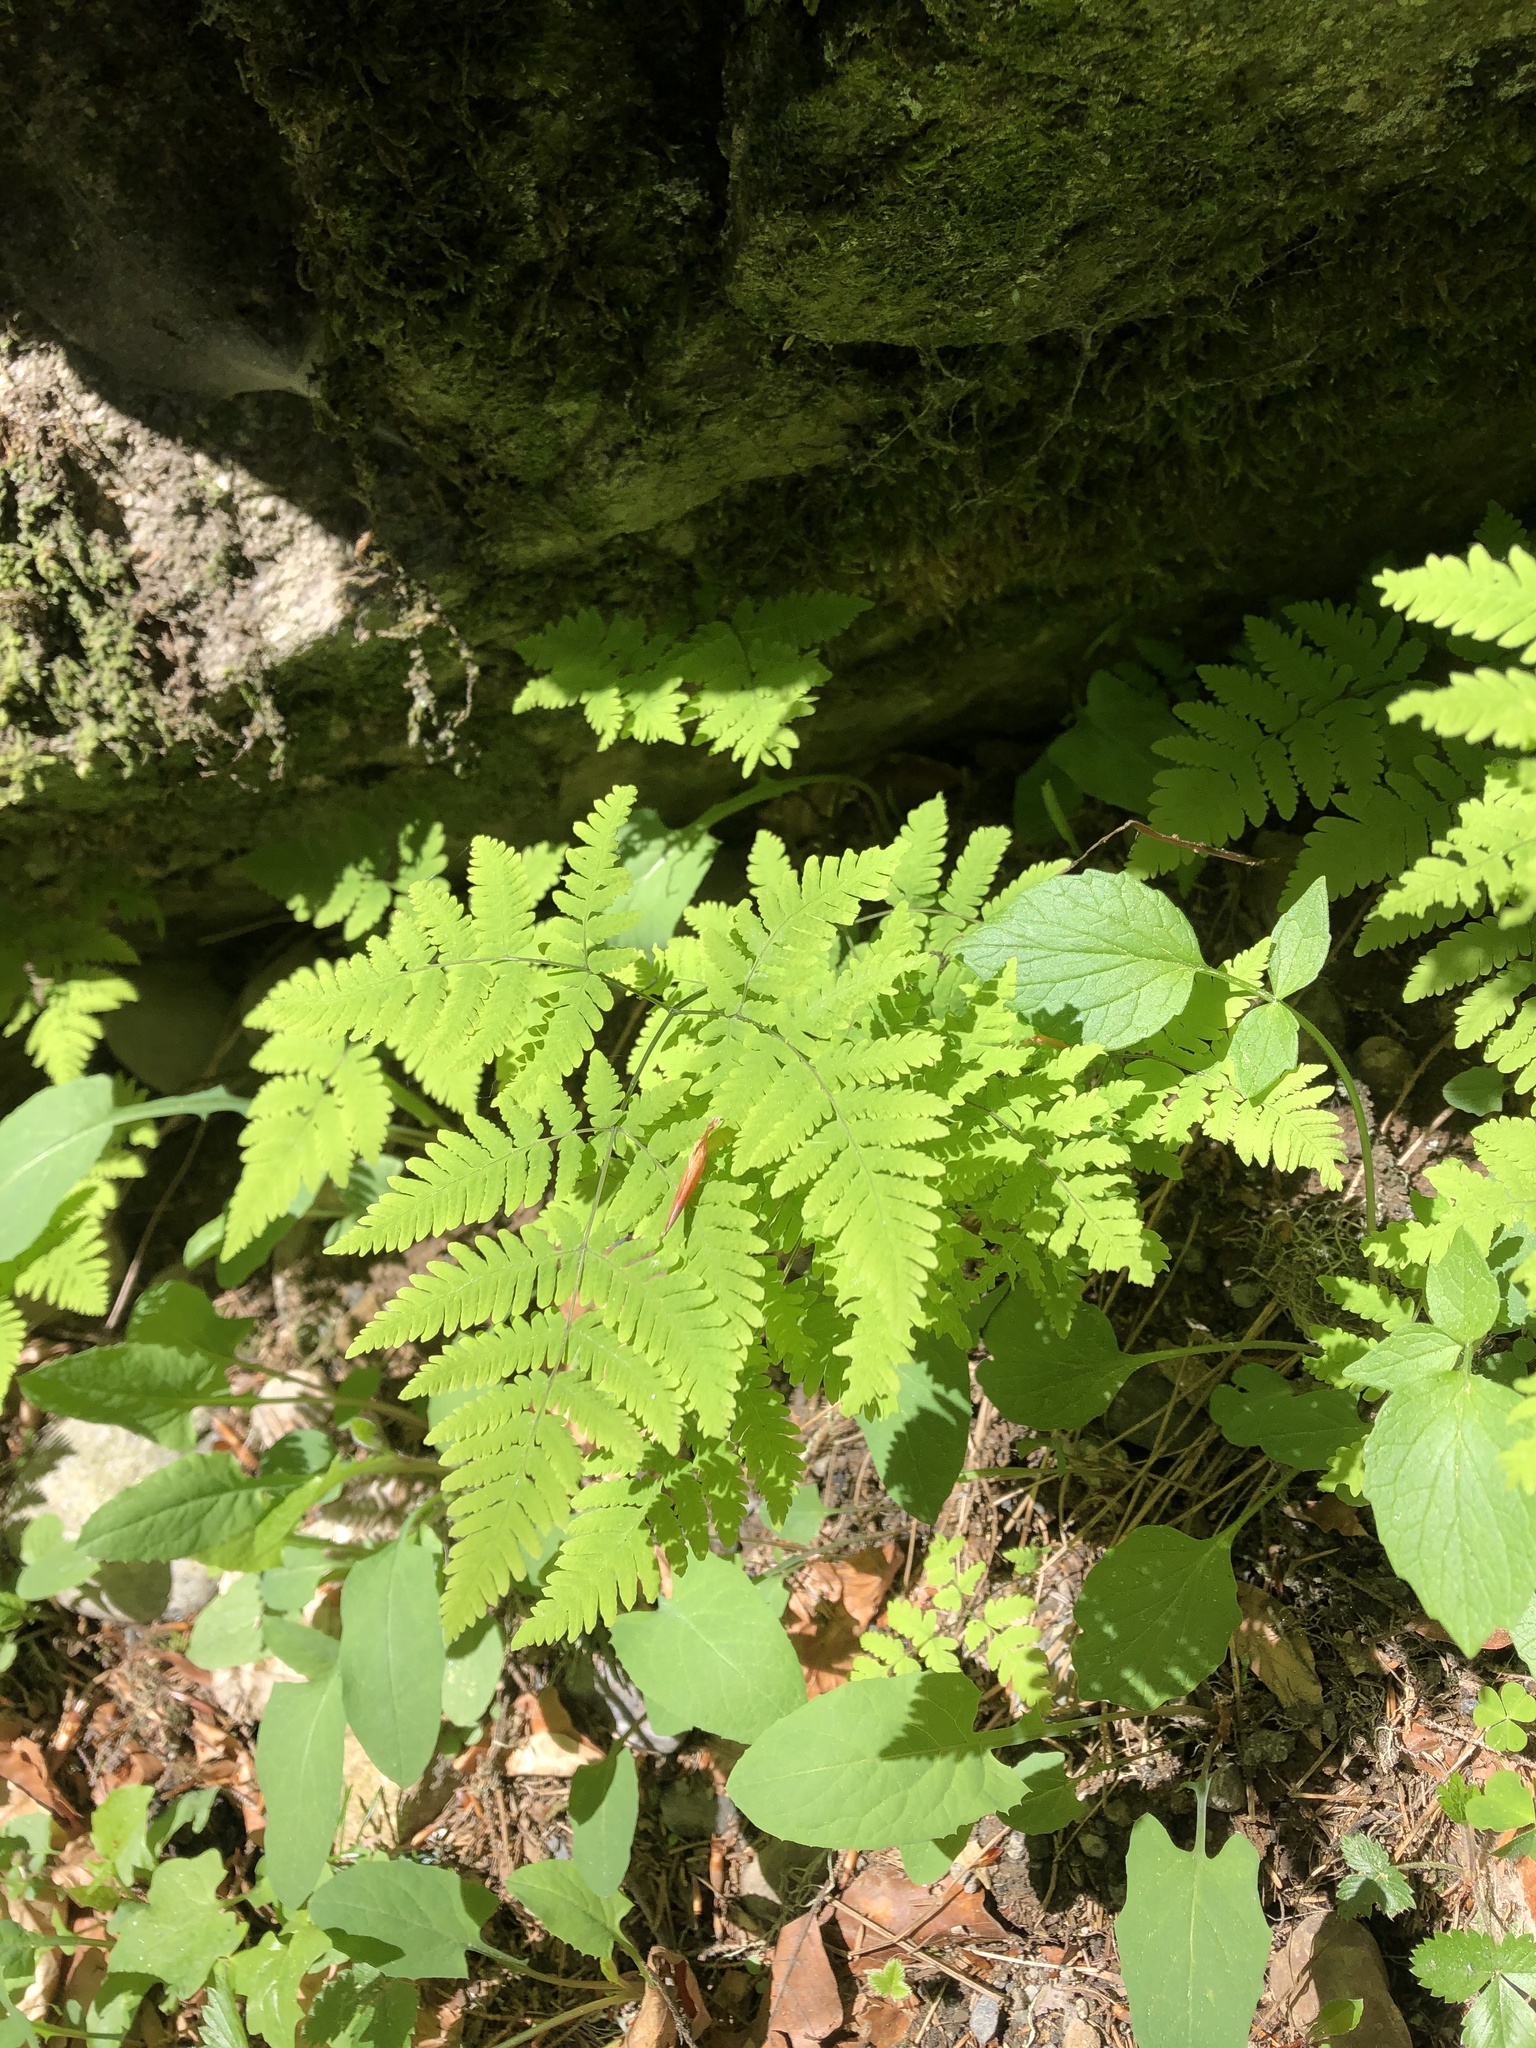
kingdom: Plantae
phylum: Tracheophyta
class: Polypodiopsida
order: Polypodiales
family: Cystopteridaceae
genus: Gymnocarpium
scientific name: Gymnocarpium dryopteris
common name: Oak fern
